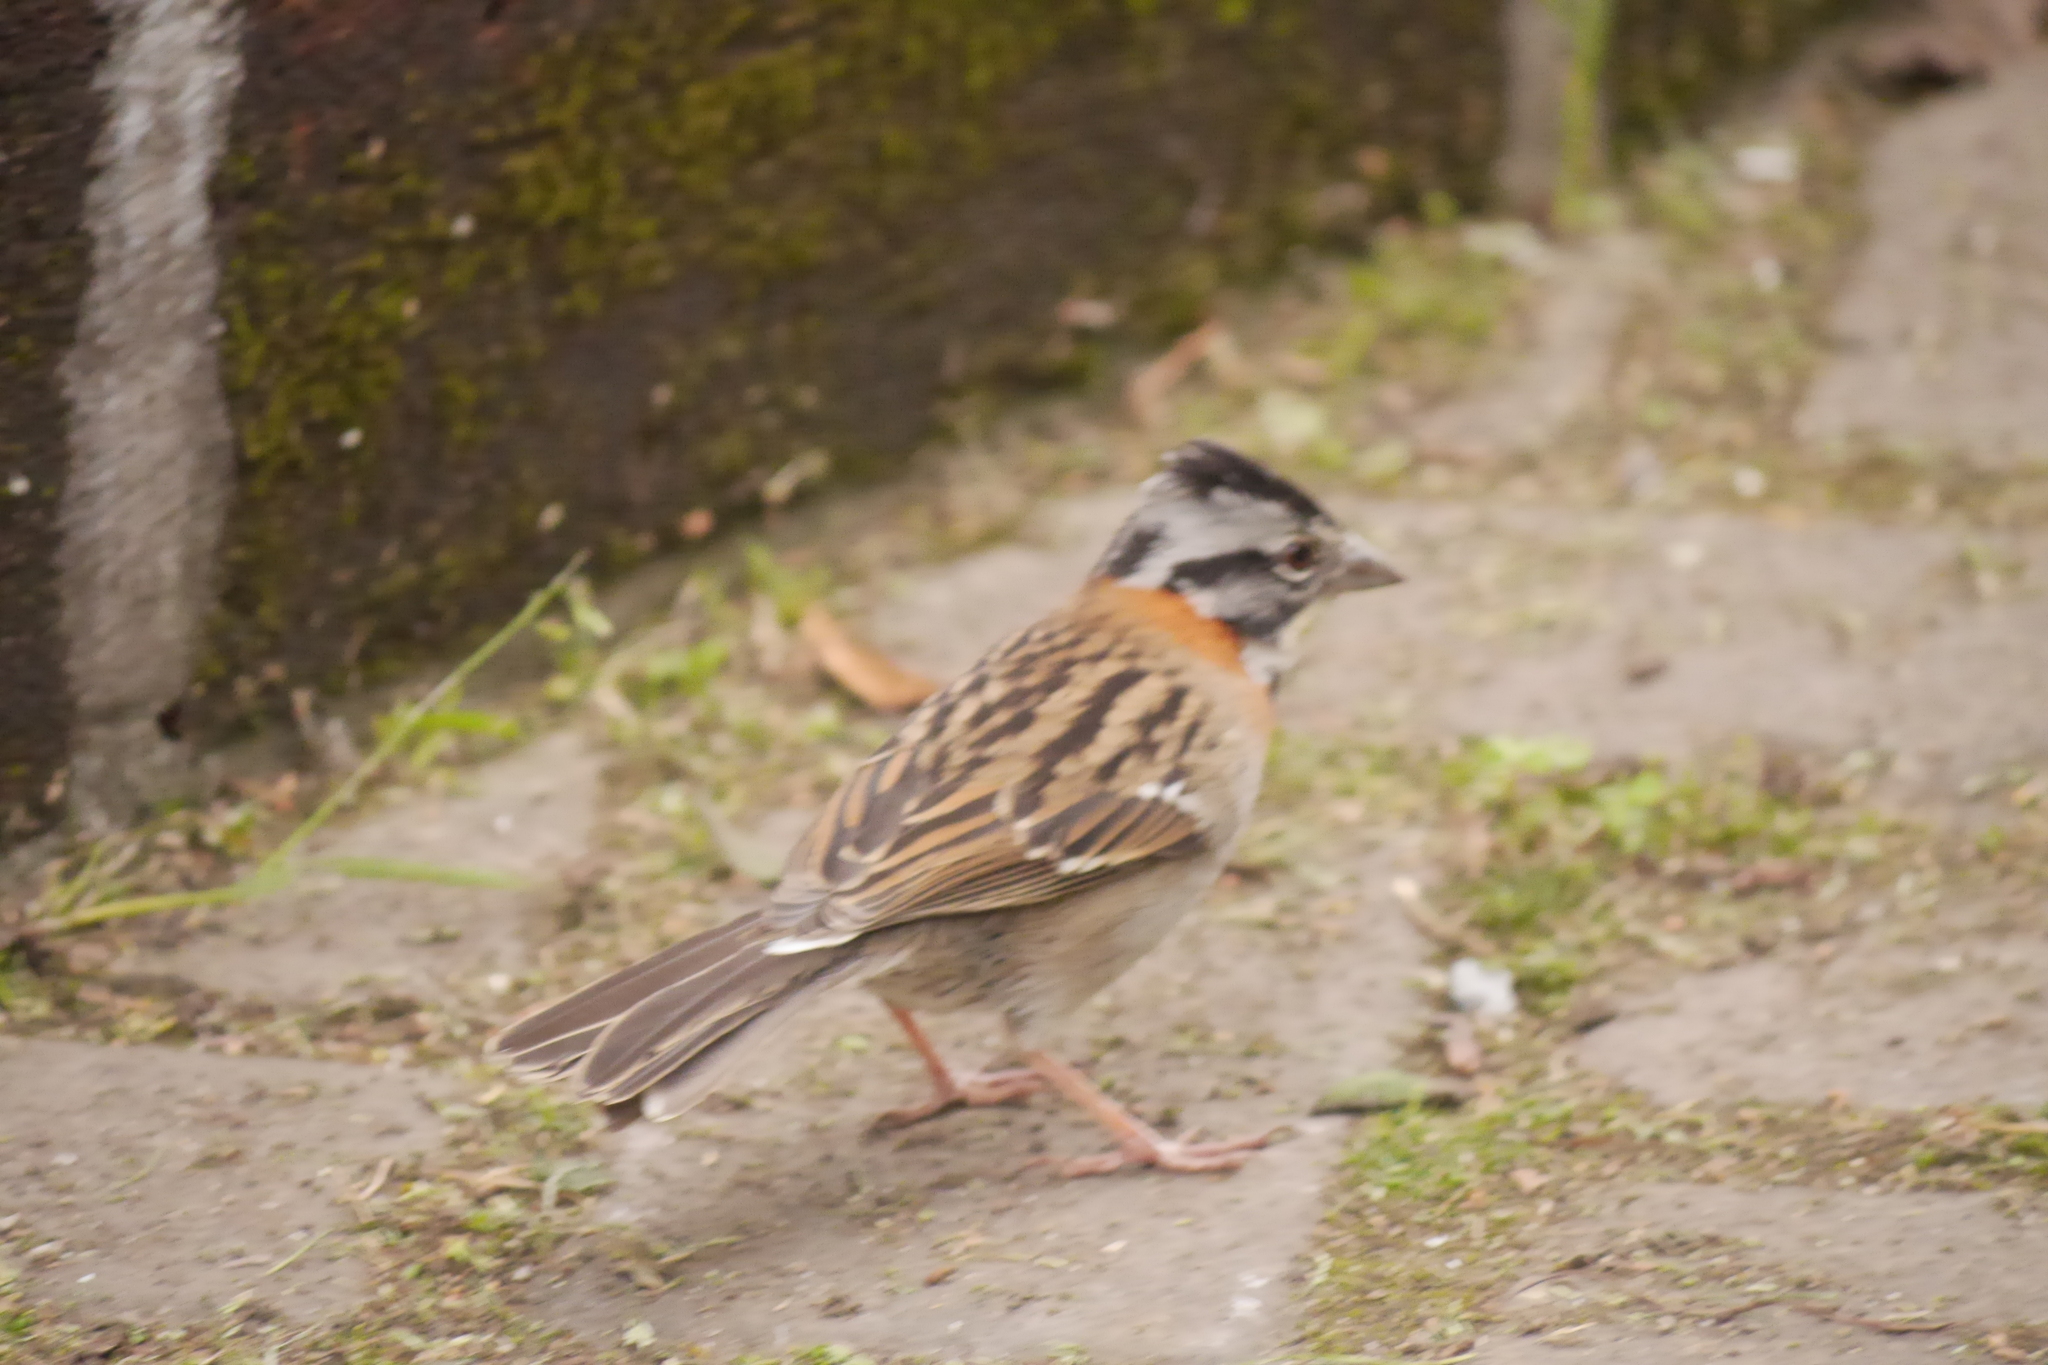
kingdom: Animalia
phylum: Chordata
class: Aves
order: Passeriformes
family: Passerellidae
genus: Zonotrichia
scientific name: Zonotrichia capensis
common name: Rufous-collared sparrow
